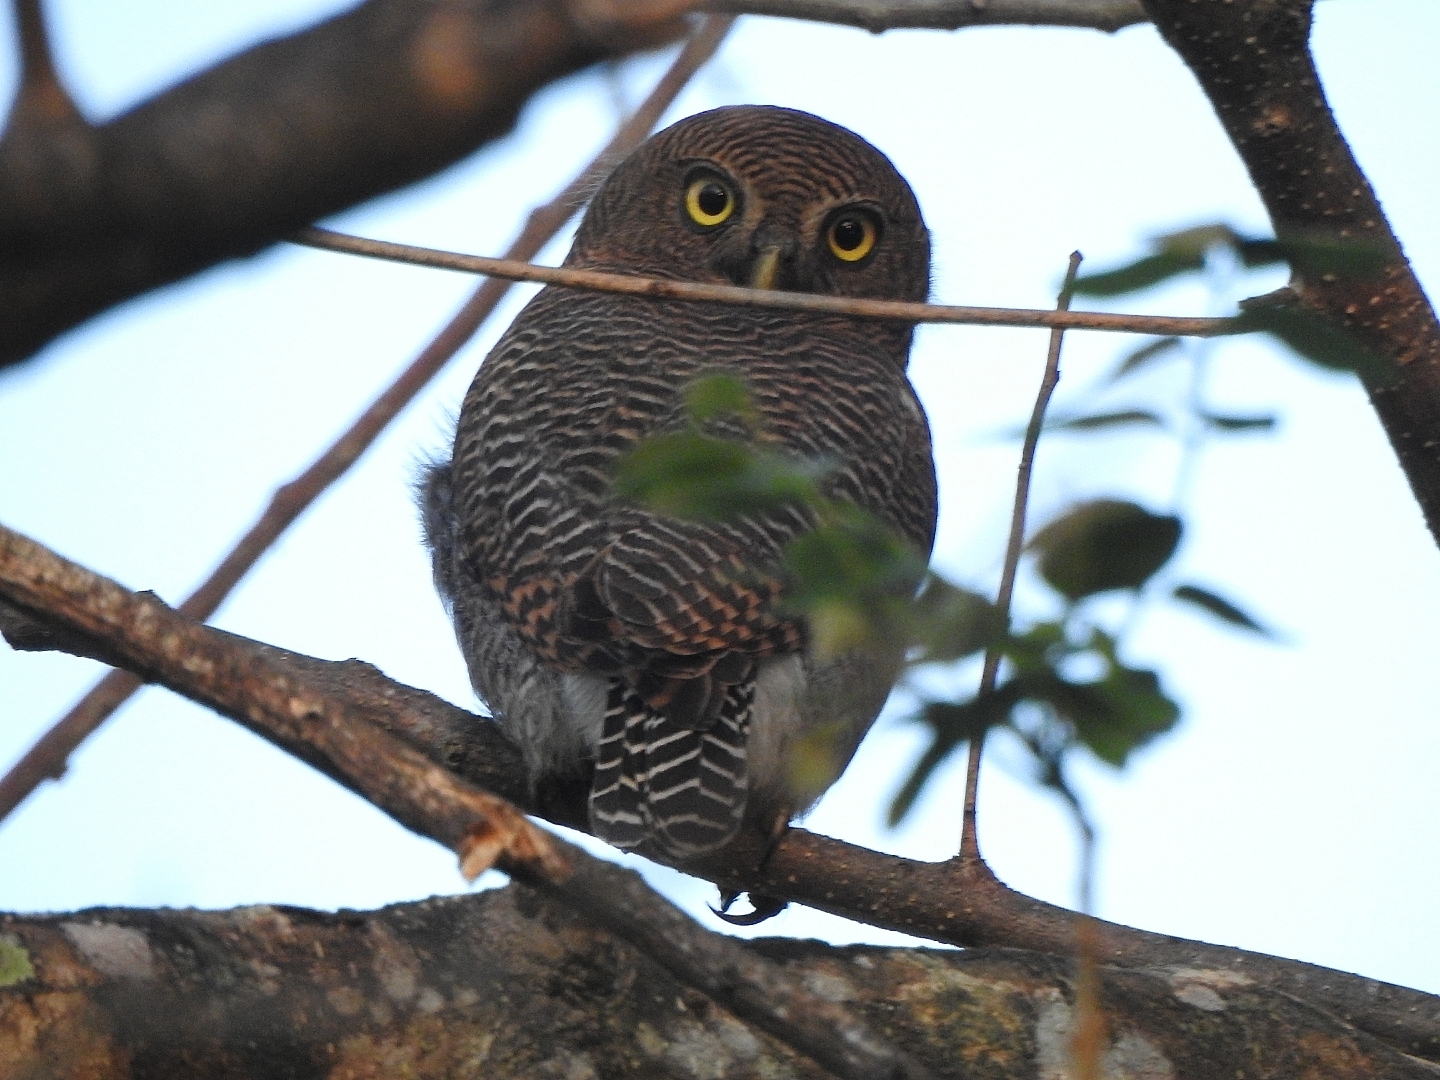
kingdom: Animalia
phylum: Chordata
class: Aves
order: Strigiformes
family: Strigidae
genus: Glaucidium
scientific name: Glaucidium radiatum
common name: Jungle owlet
